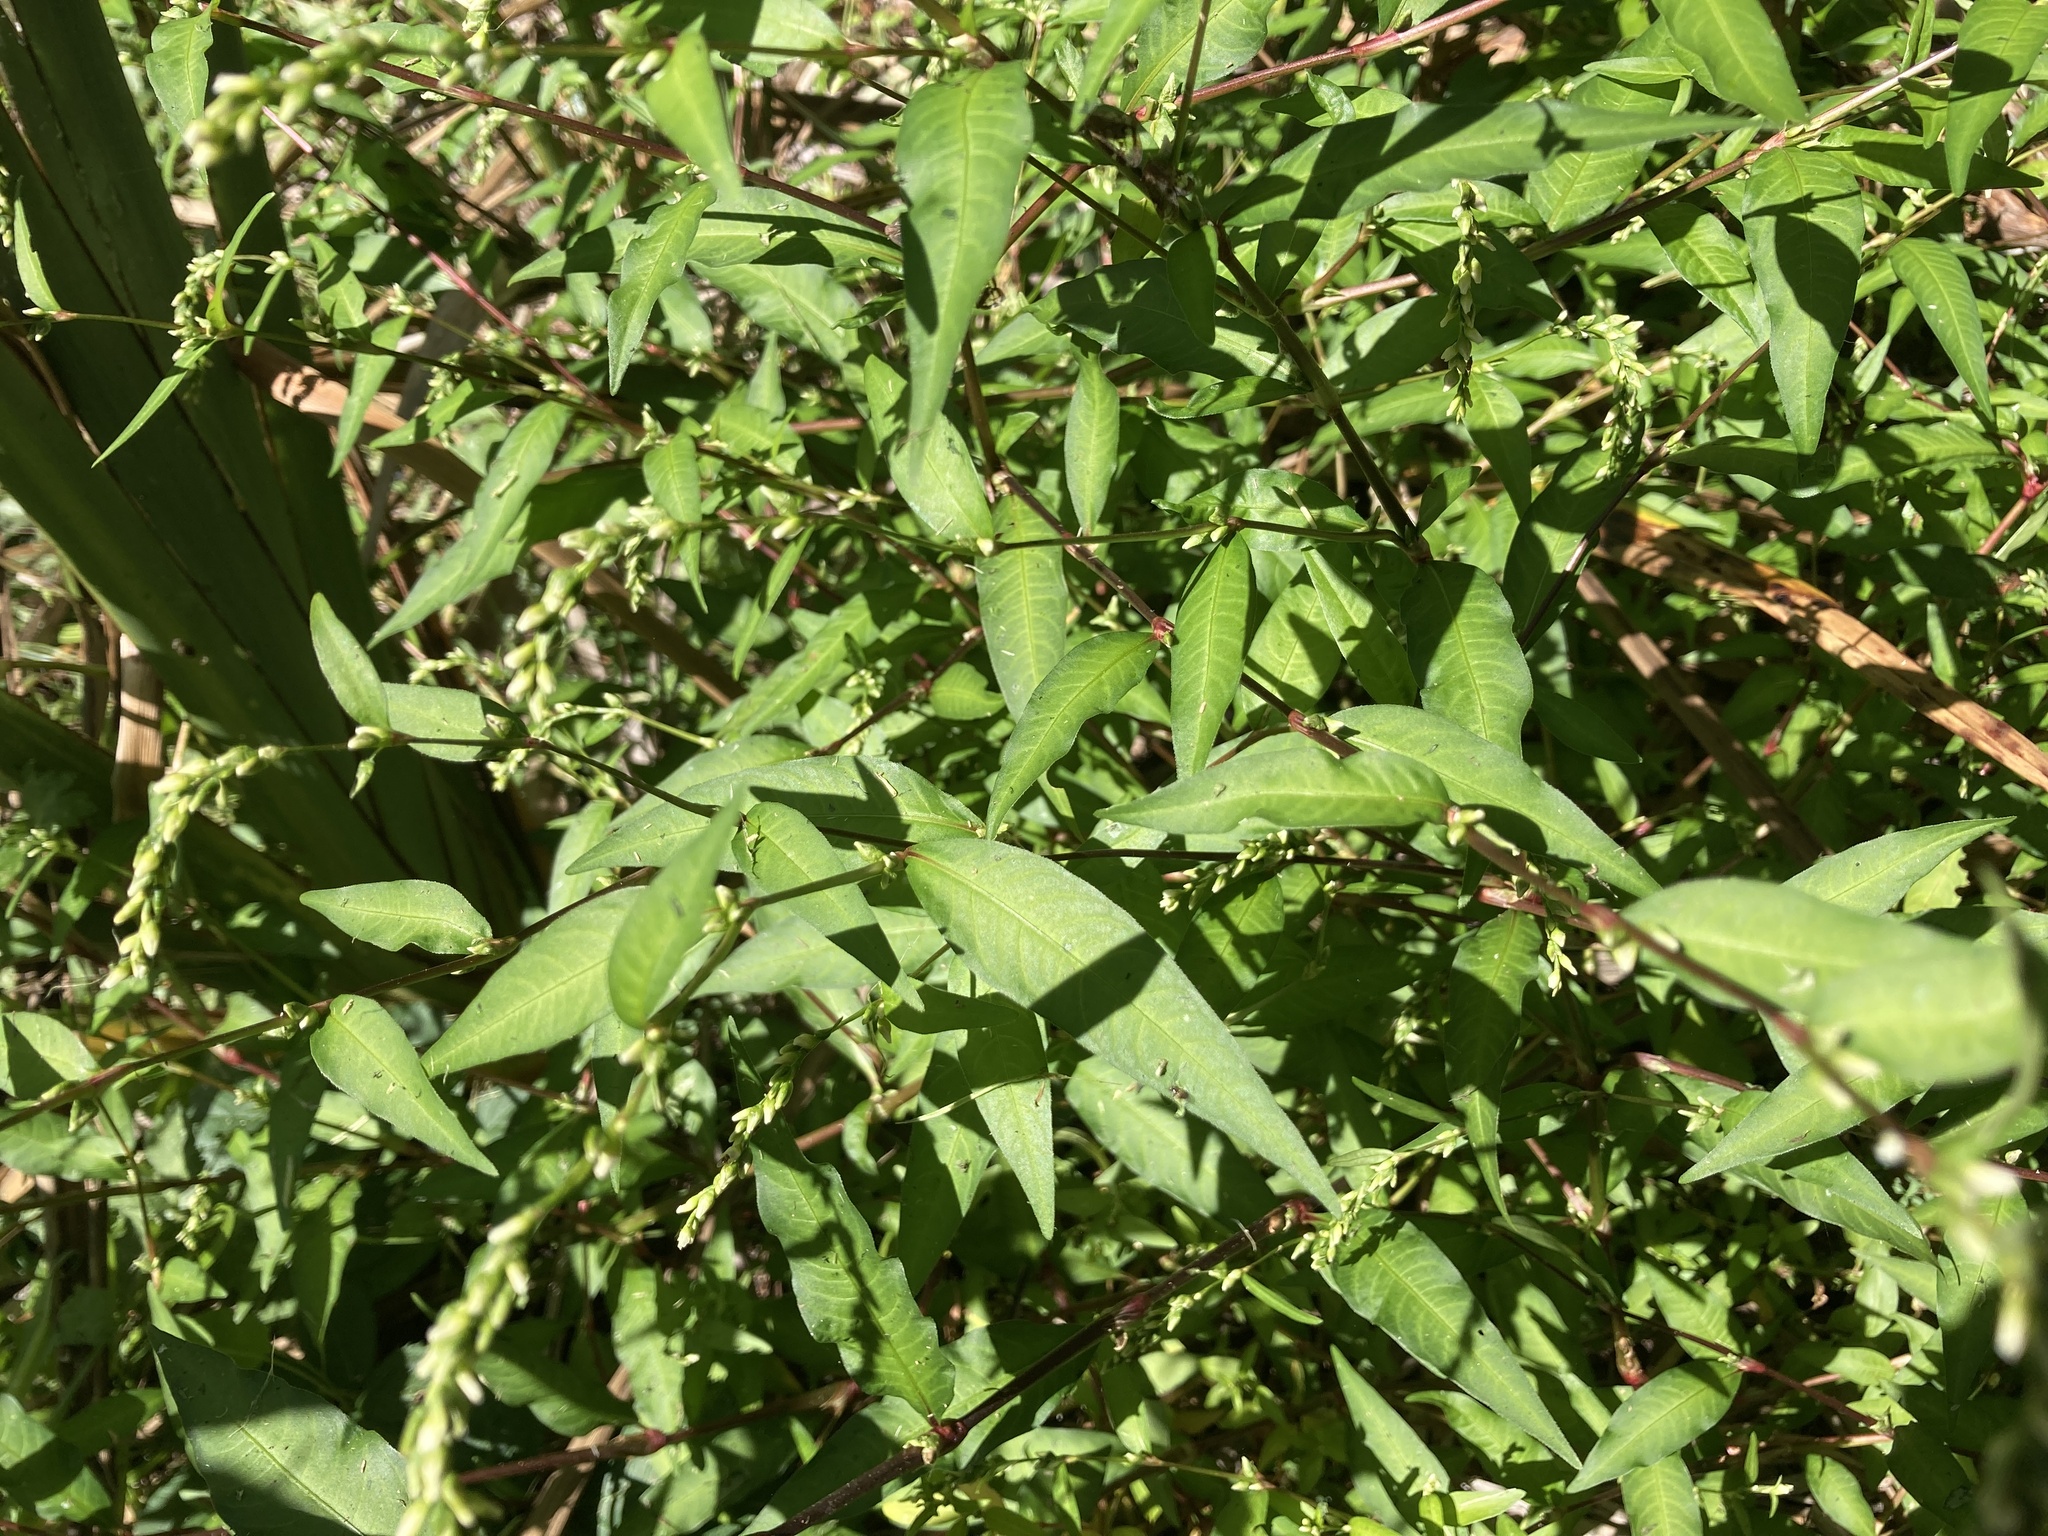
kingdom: Plantae
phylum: Tracheophyta
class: Magnoliopsida
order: Caryophyllales
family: Polygonaceae
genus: Persicaria
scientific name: Persicaria hydropiper
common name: Water-pepper
